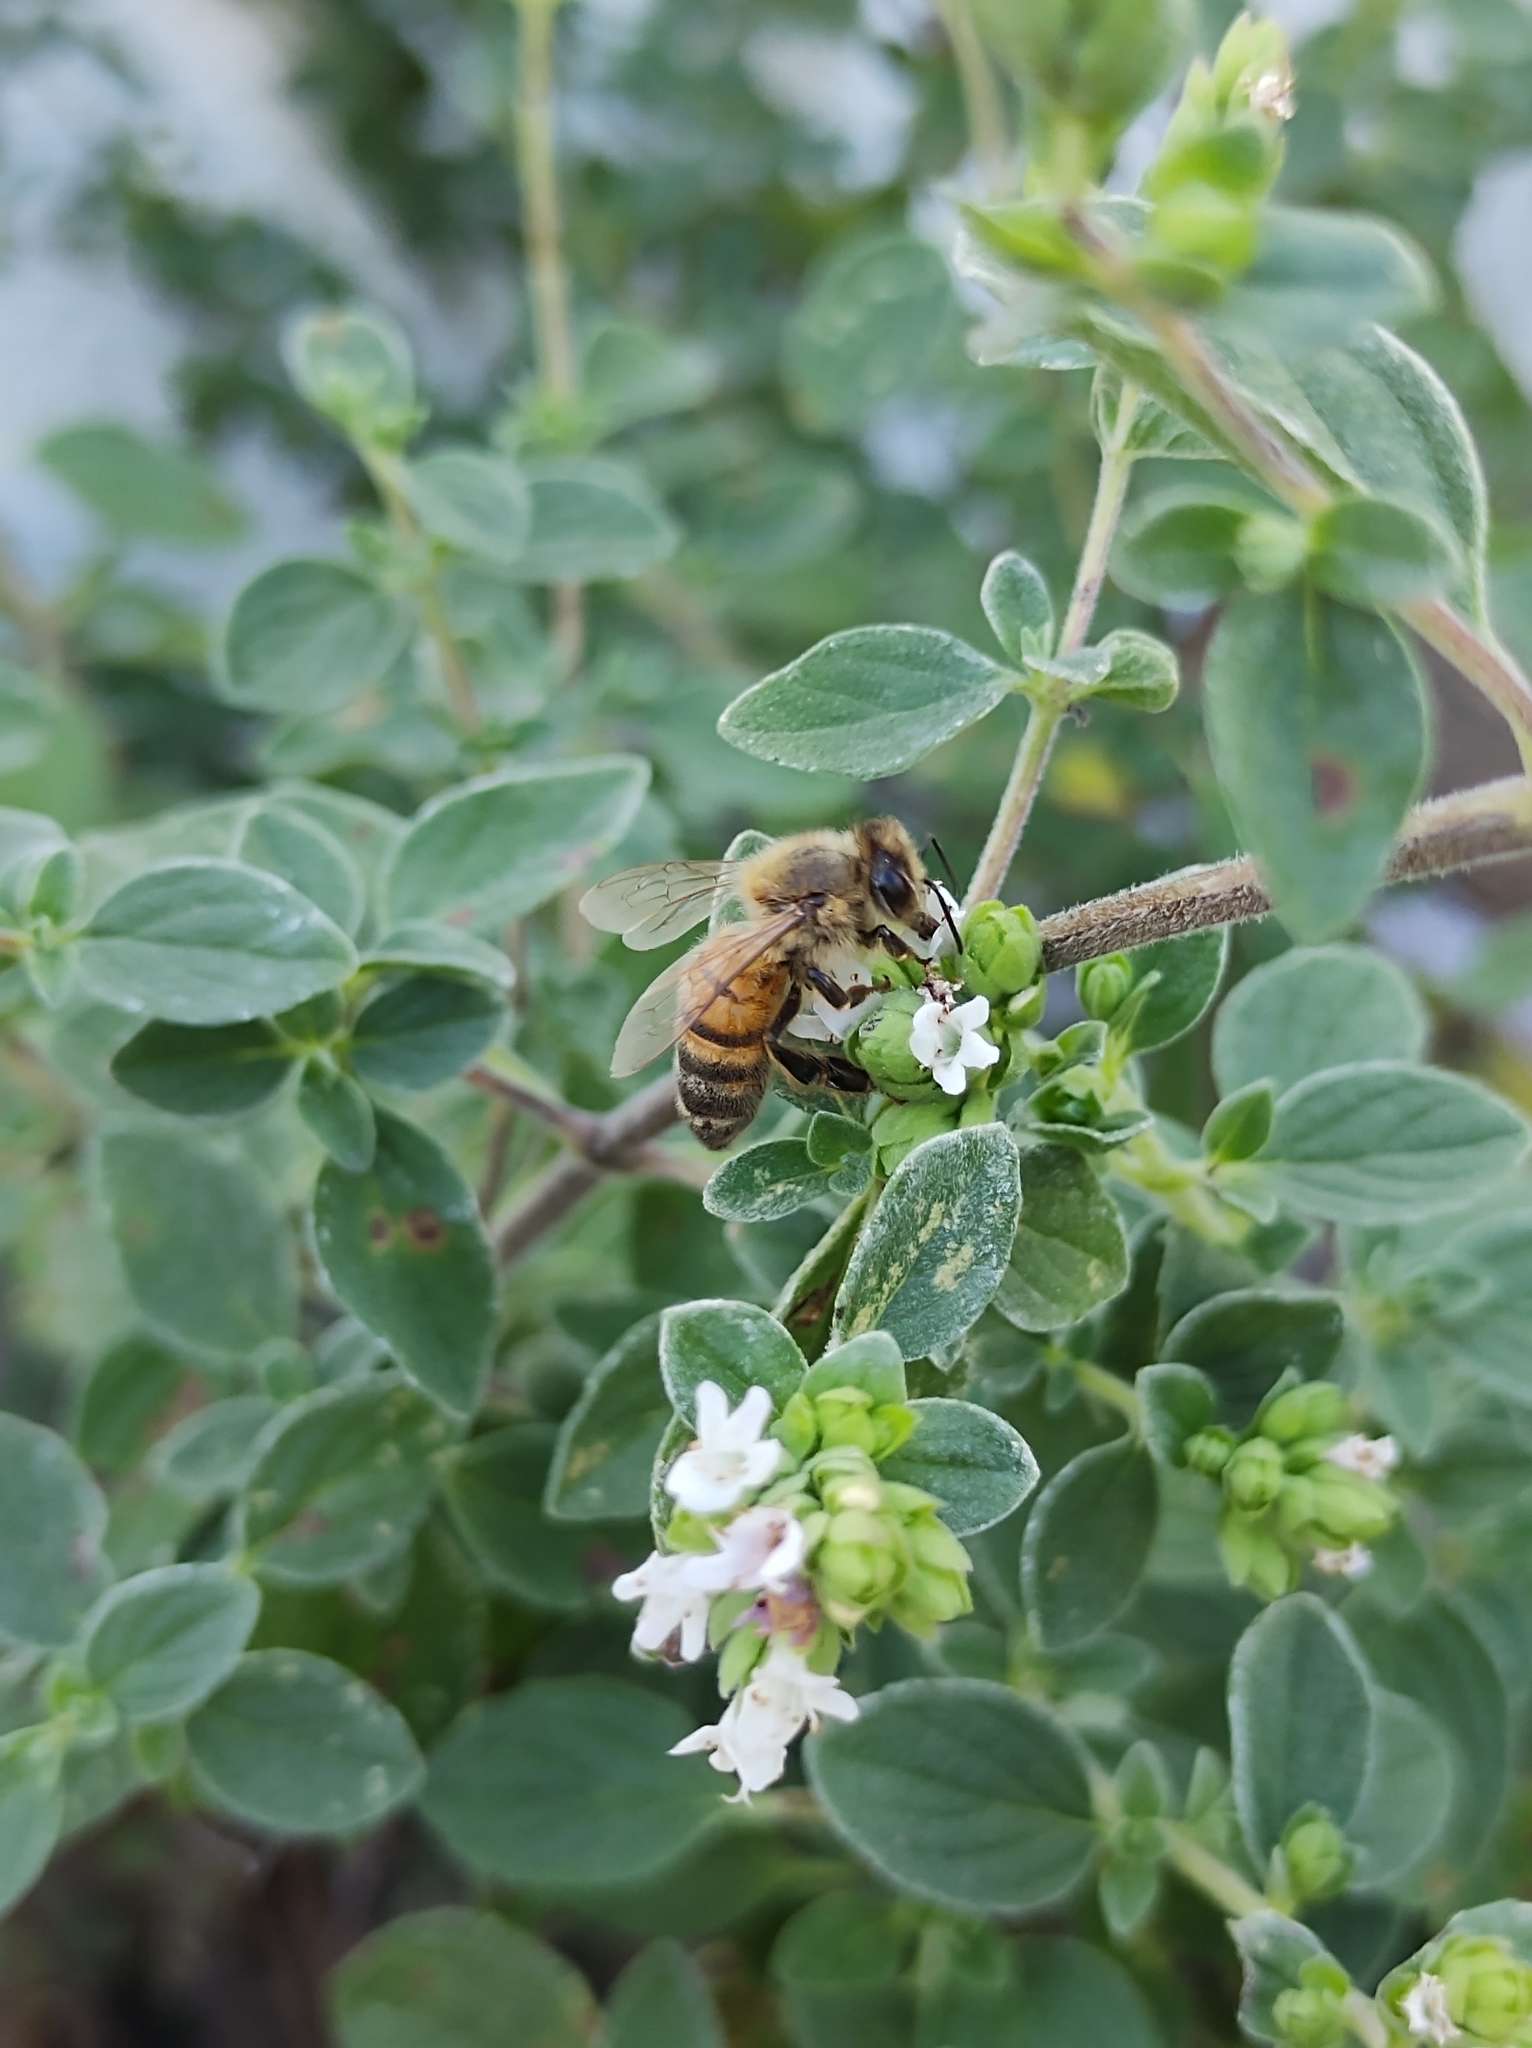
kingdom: Animalia
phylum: Arthropoda
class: Insecta
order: Hymenoptera
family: Apidae
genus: Apis
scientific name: Apis mellifera
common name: Honey bee
